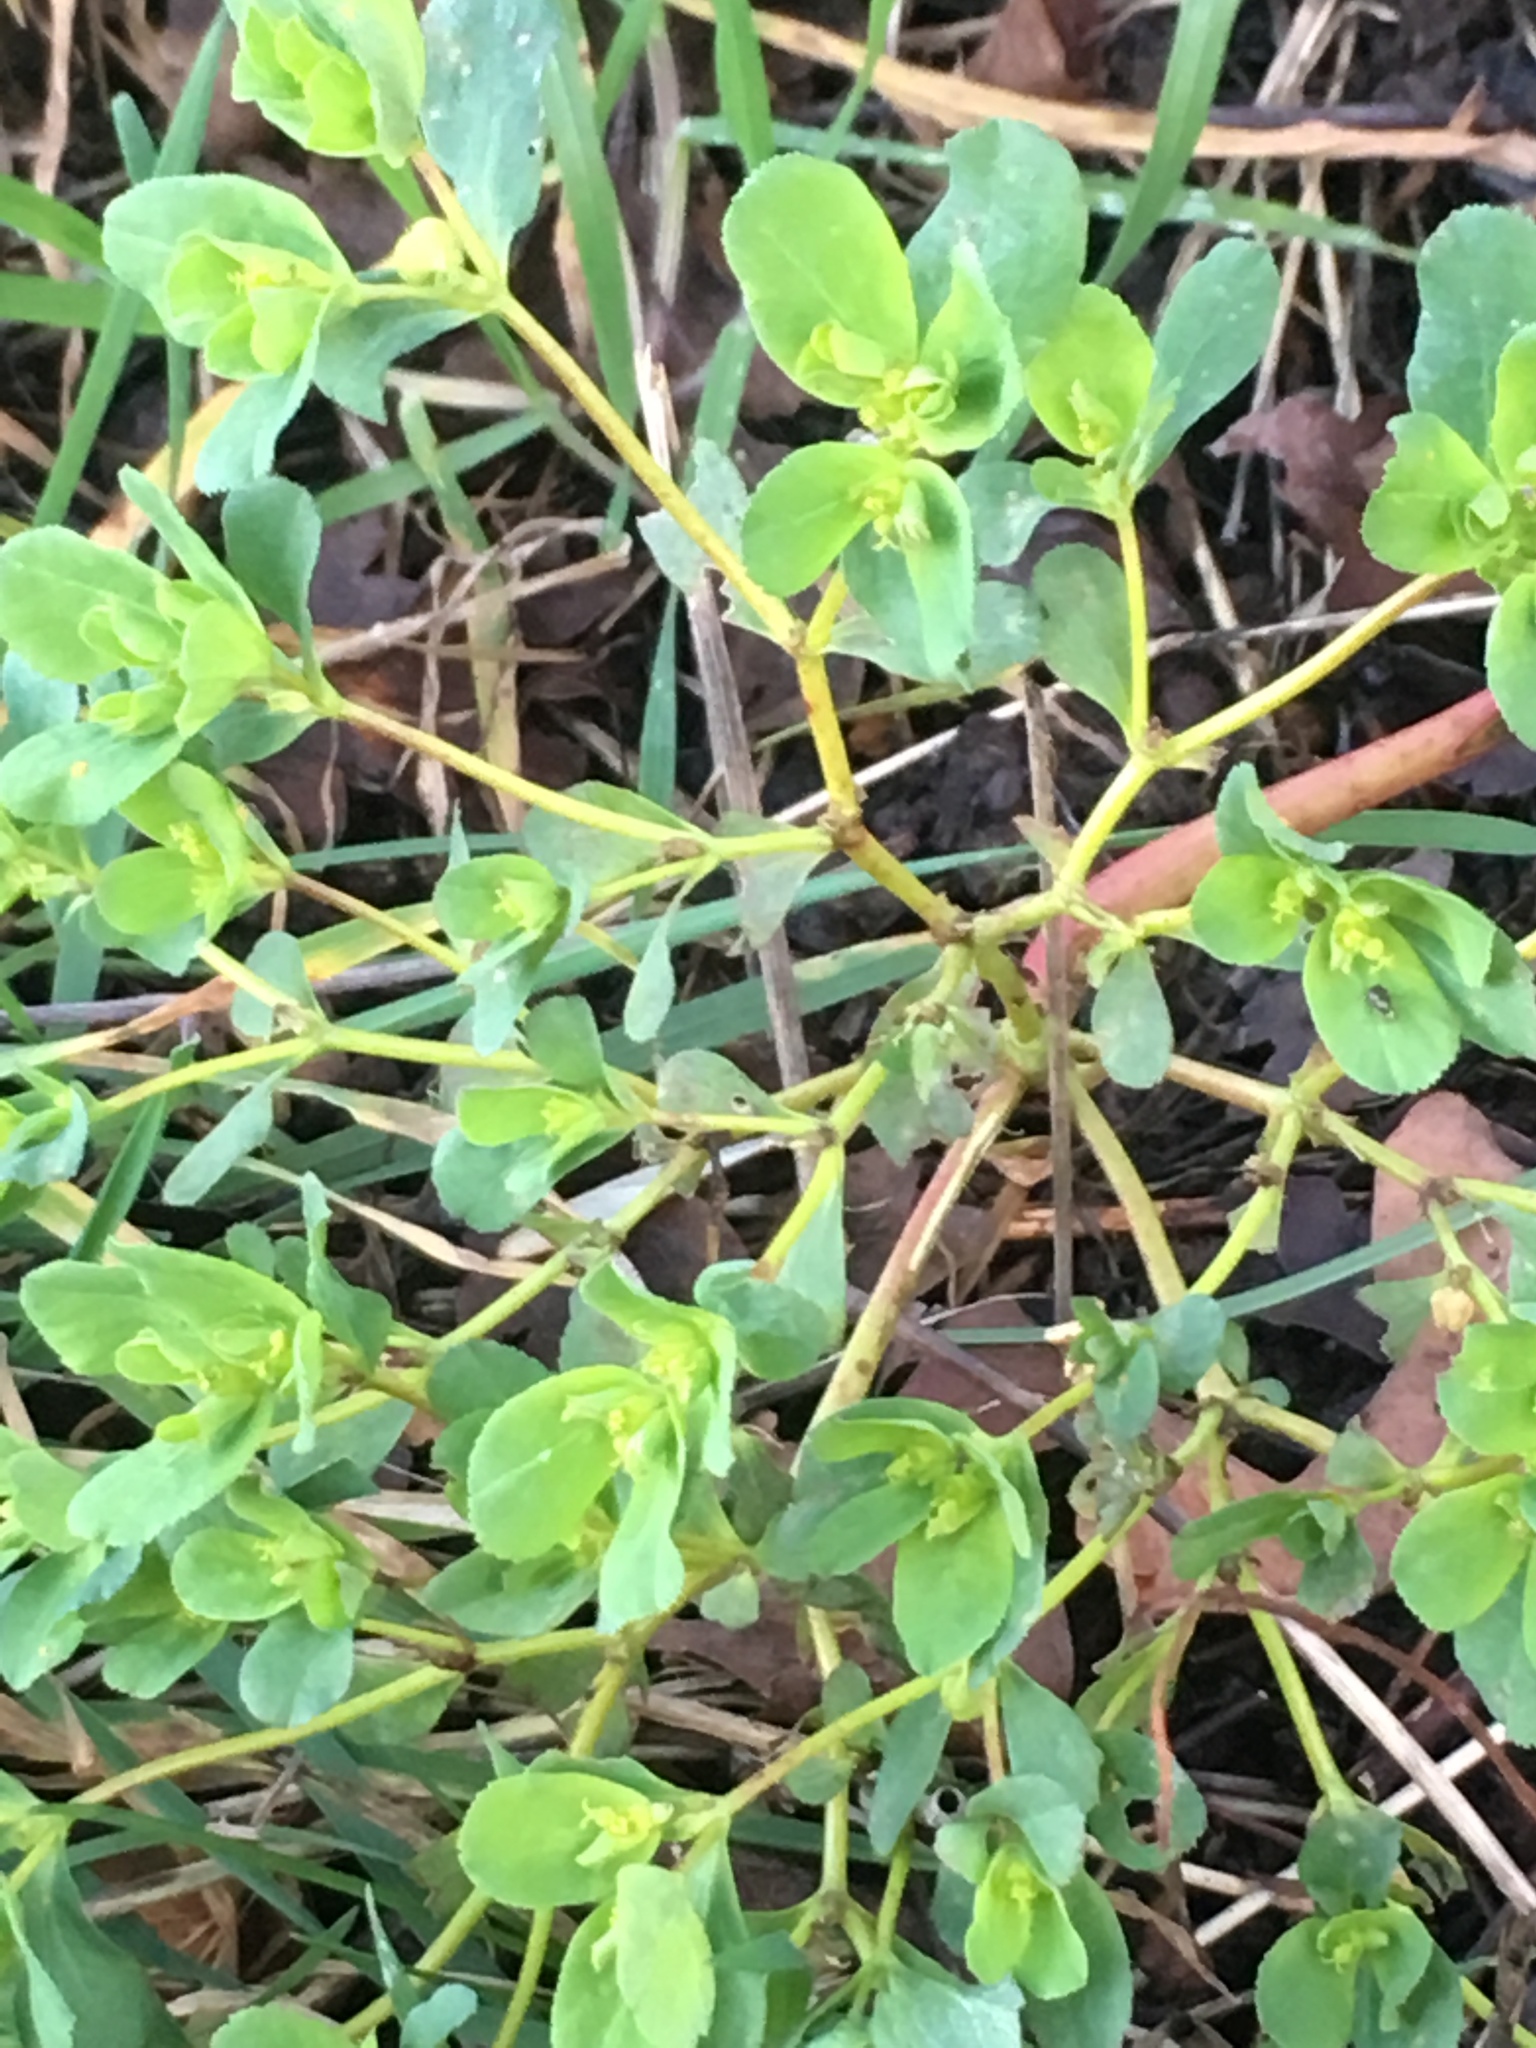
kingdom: Plantae
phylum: Tracheophyta
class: Magnoliopsida
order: Malpighiales
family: Euphorbiaceae
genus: Euphorbia
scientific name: Euphorbia helioscopia
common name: Sun spurge
